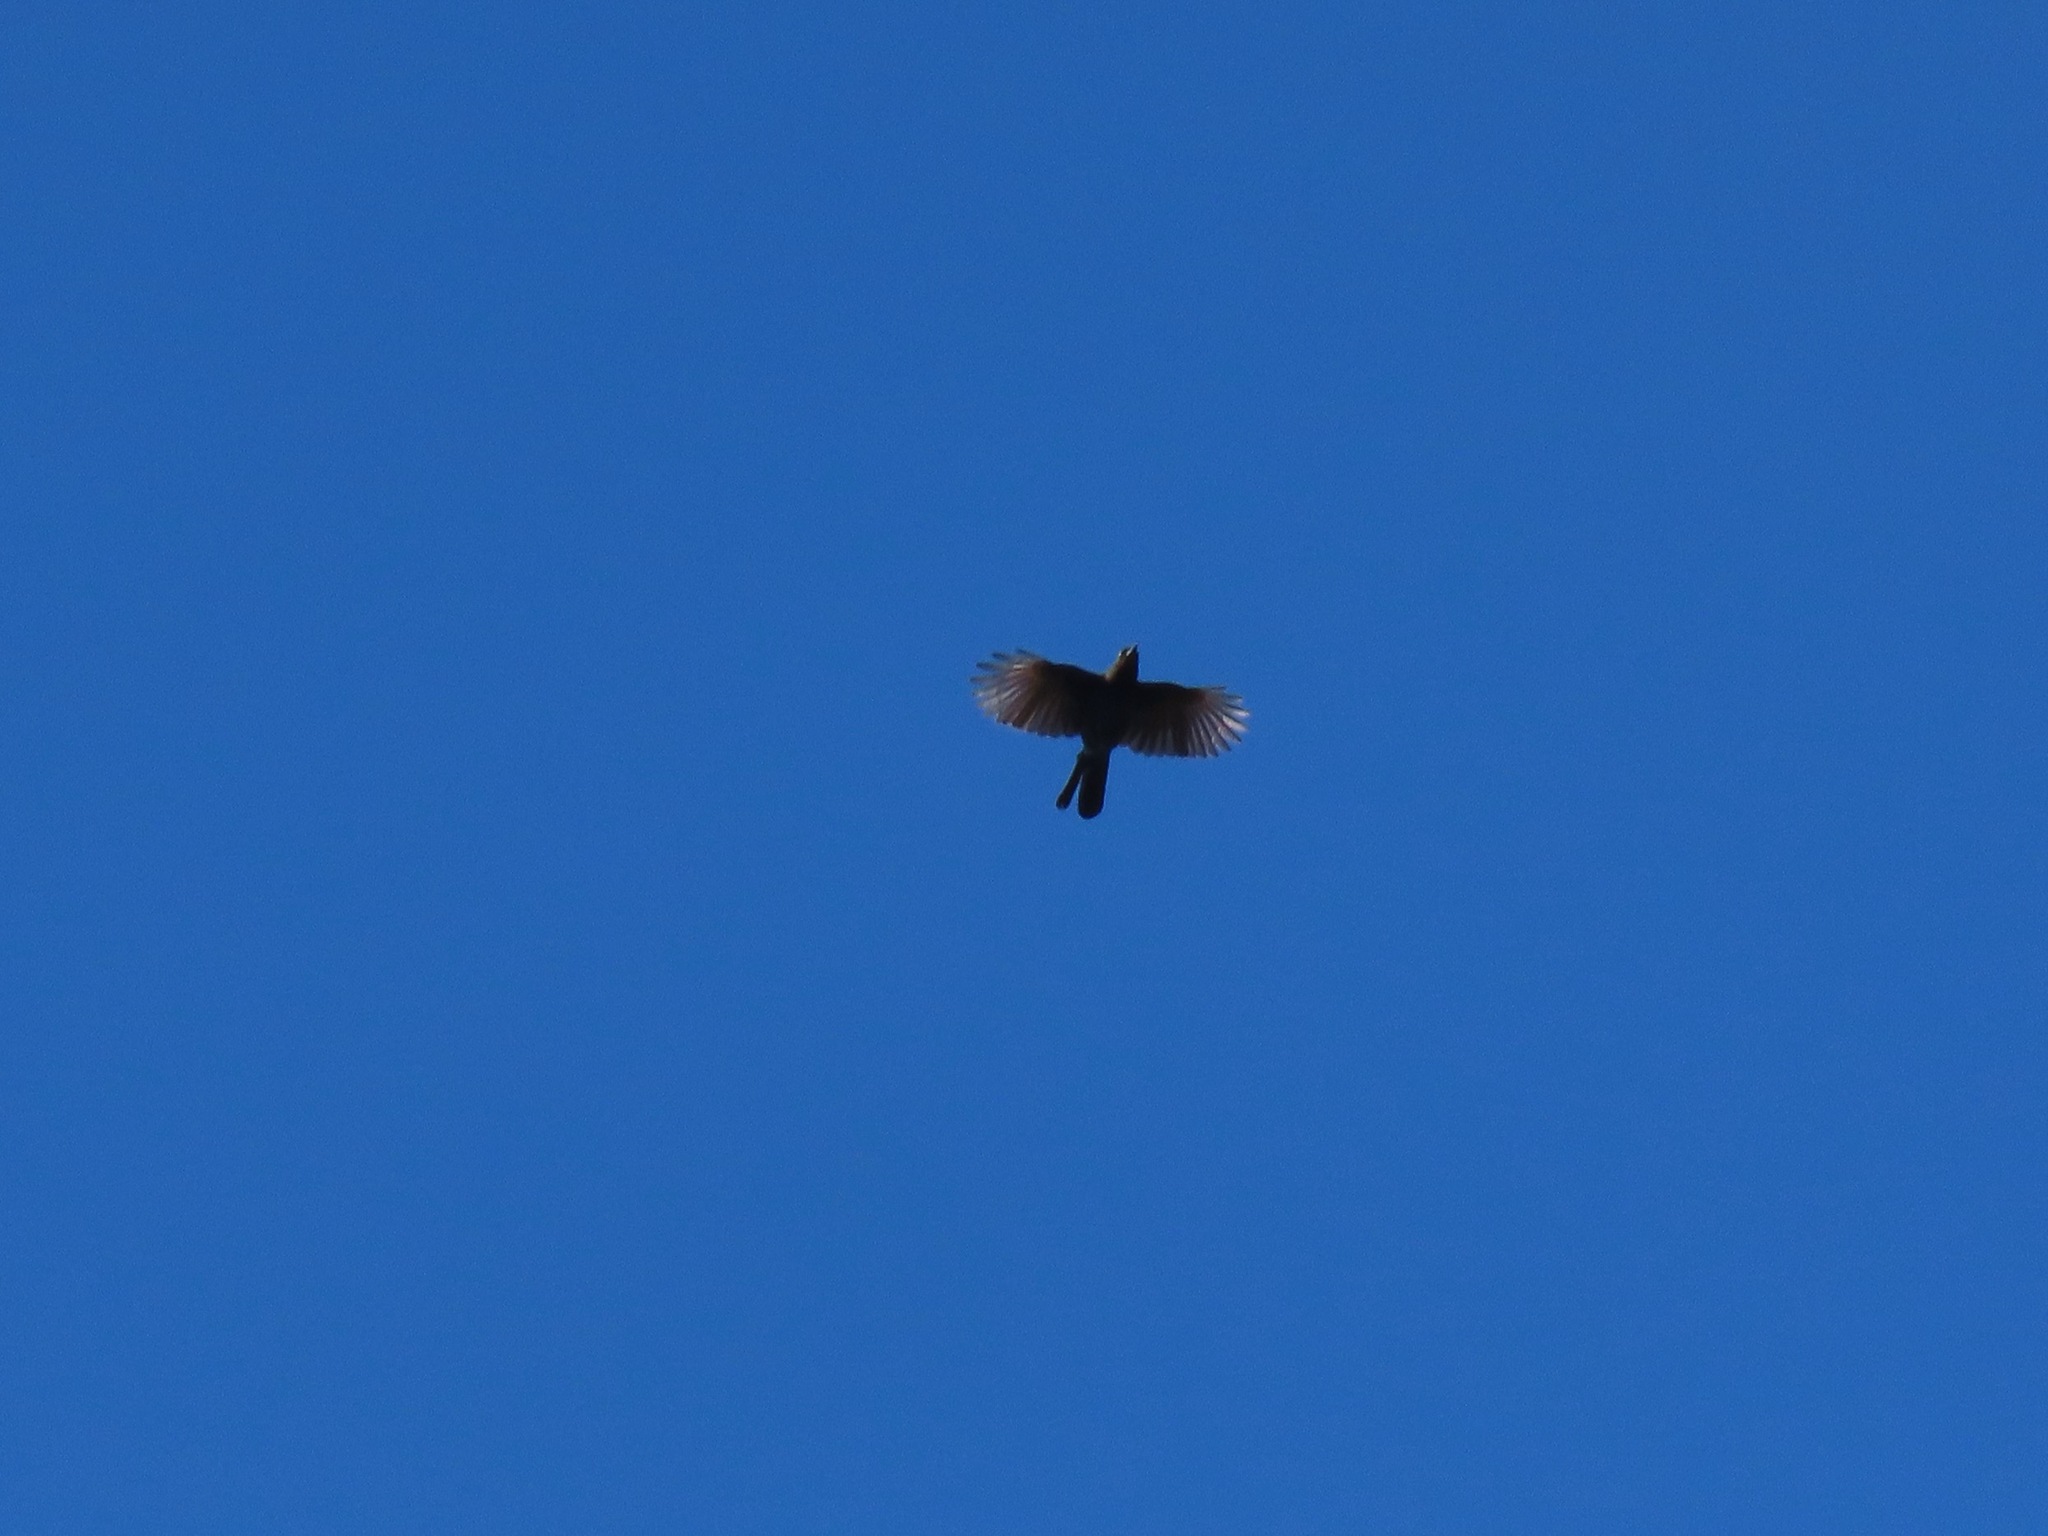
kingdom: Animalia
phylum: Chordata
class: Aves
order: Passeriformes
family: Corvidae
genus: Cyanocitta
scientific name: Cyanocitta stelleri
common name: Steller's jay
